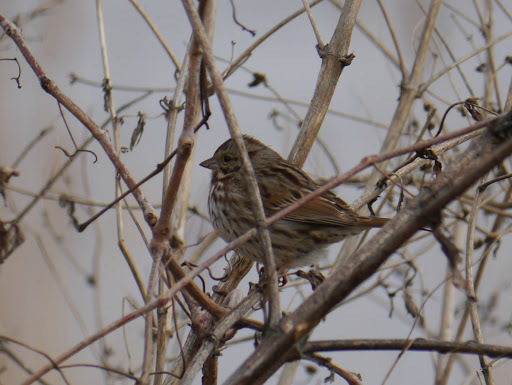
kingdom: Animalia
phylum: Chordata
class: Aves
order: Passeriformes
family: Passerellidae
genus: Melospiza
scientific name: Melospiza melodia
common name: Song sparrow
